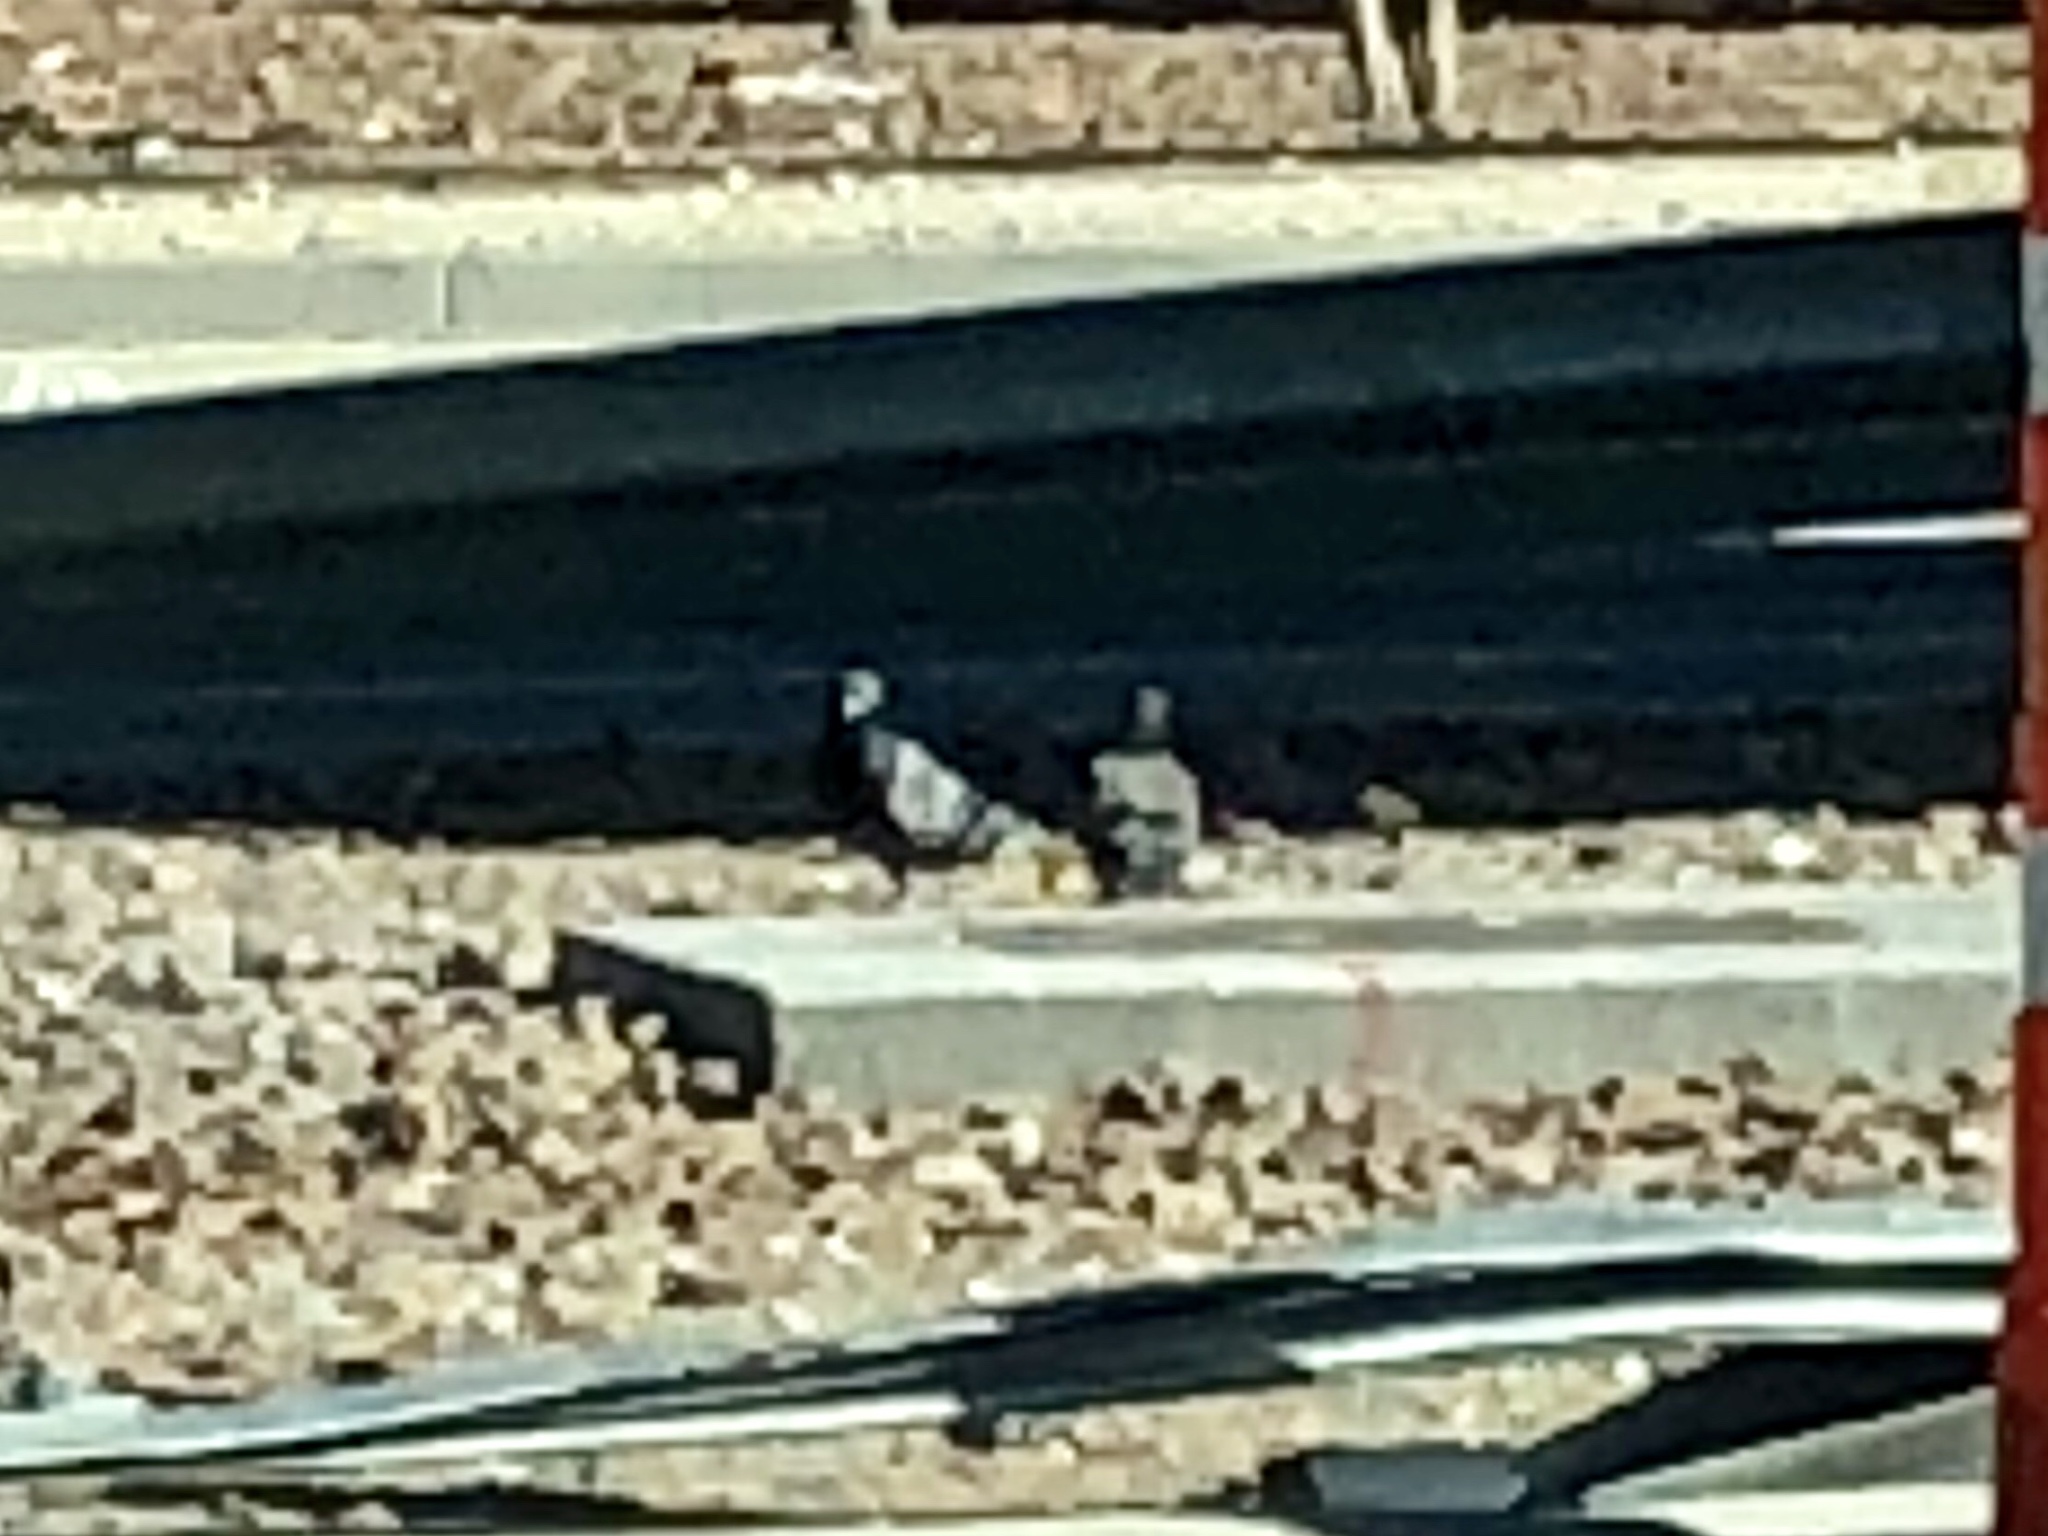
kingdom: Animalia
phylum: Chordata
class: Aves
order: Columbiformes
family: Columbidae
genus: Columba
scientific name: Columba livia
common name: Rock pigeon
